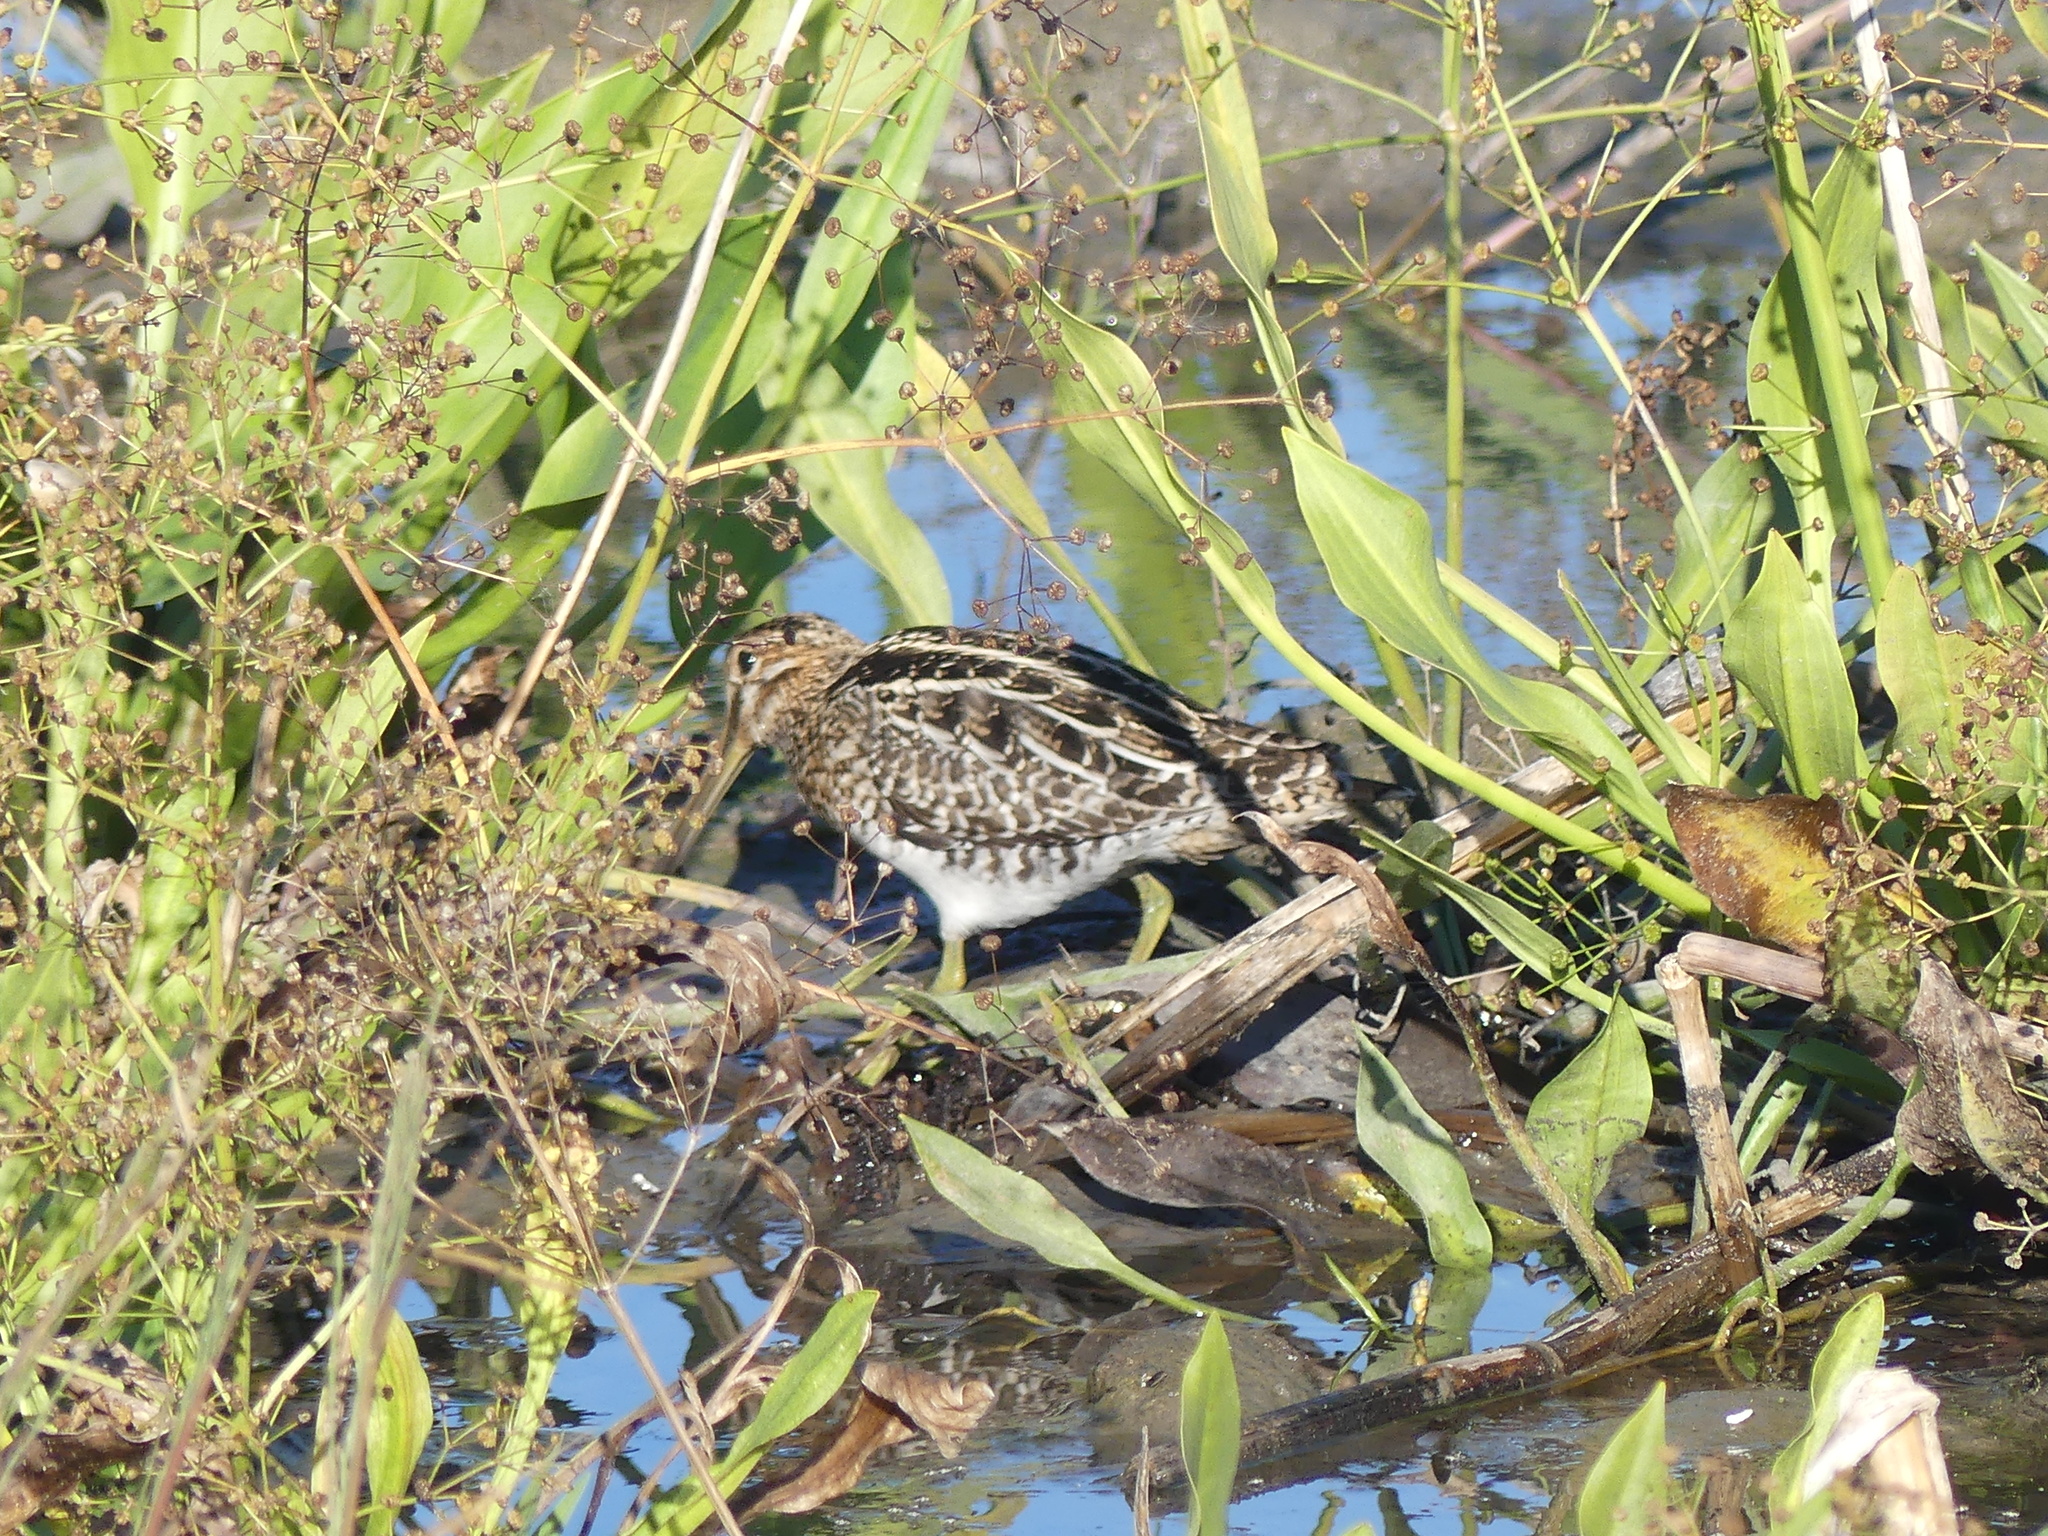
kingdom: Animalia
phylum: Chordata
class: Aves
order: Charadriiformes
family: Scolopacidae
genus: Gallinago
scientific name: Gallinago delicata
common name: Wilson's snipe
